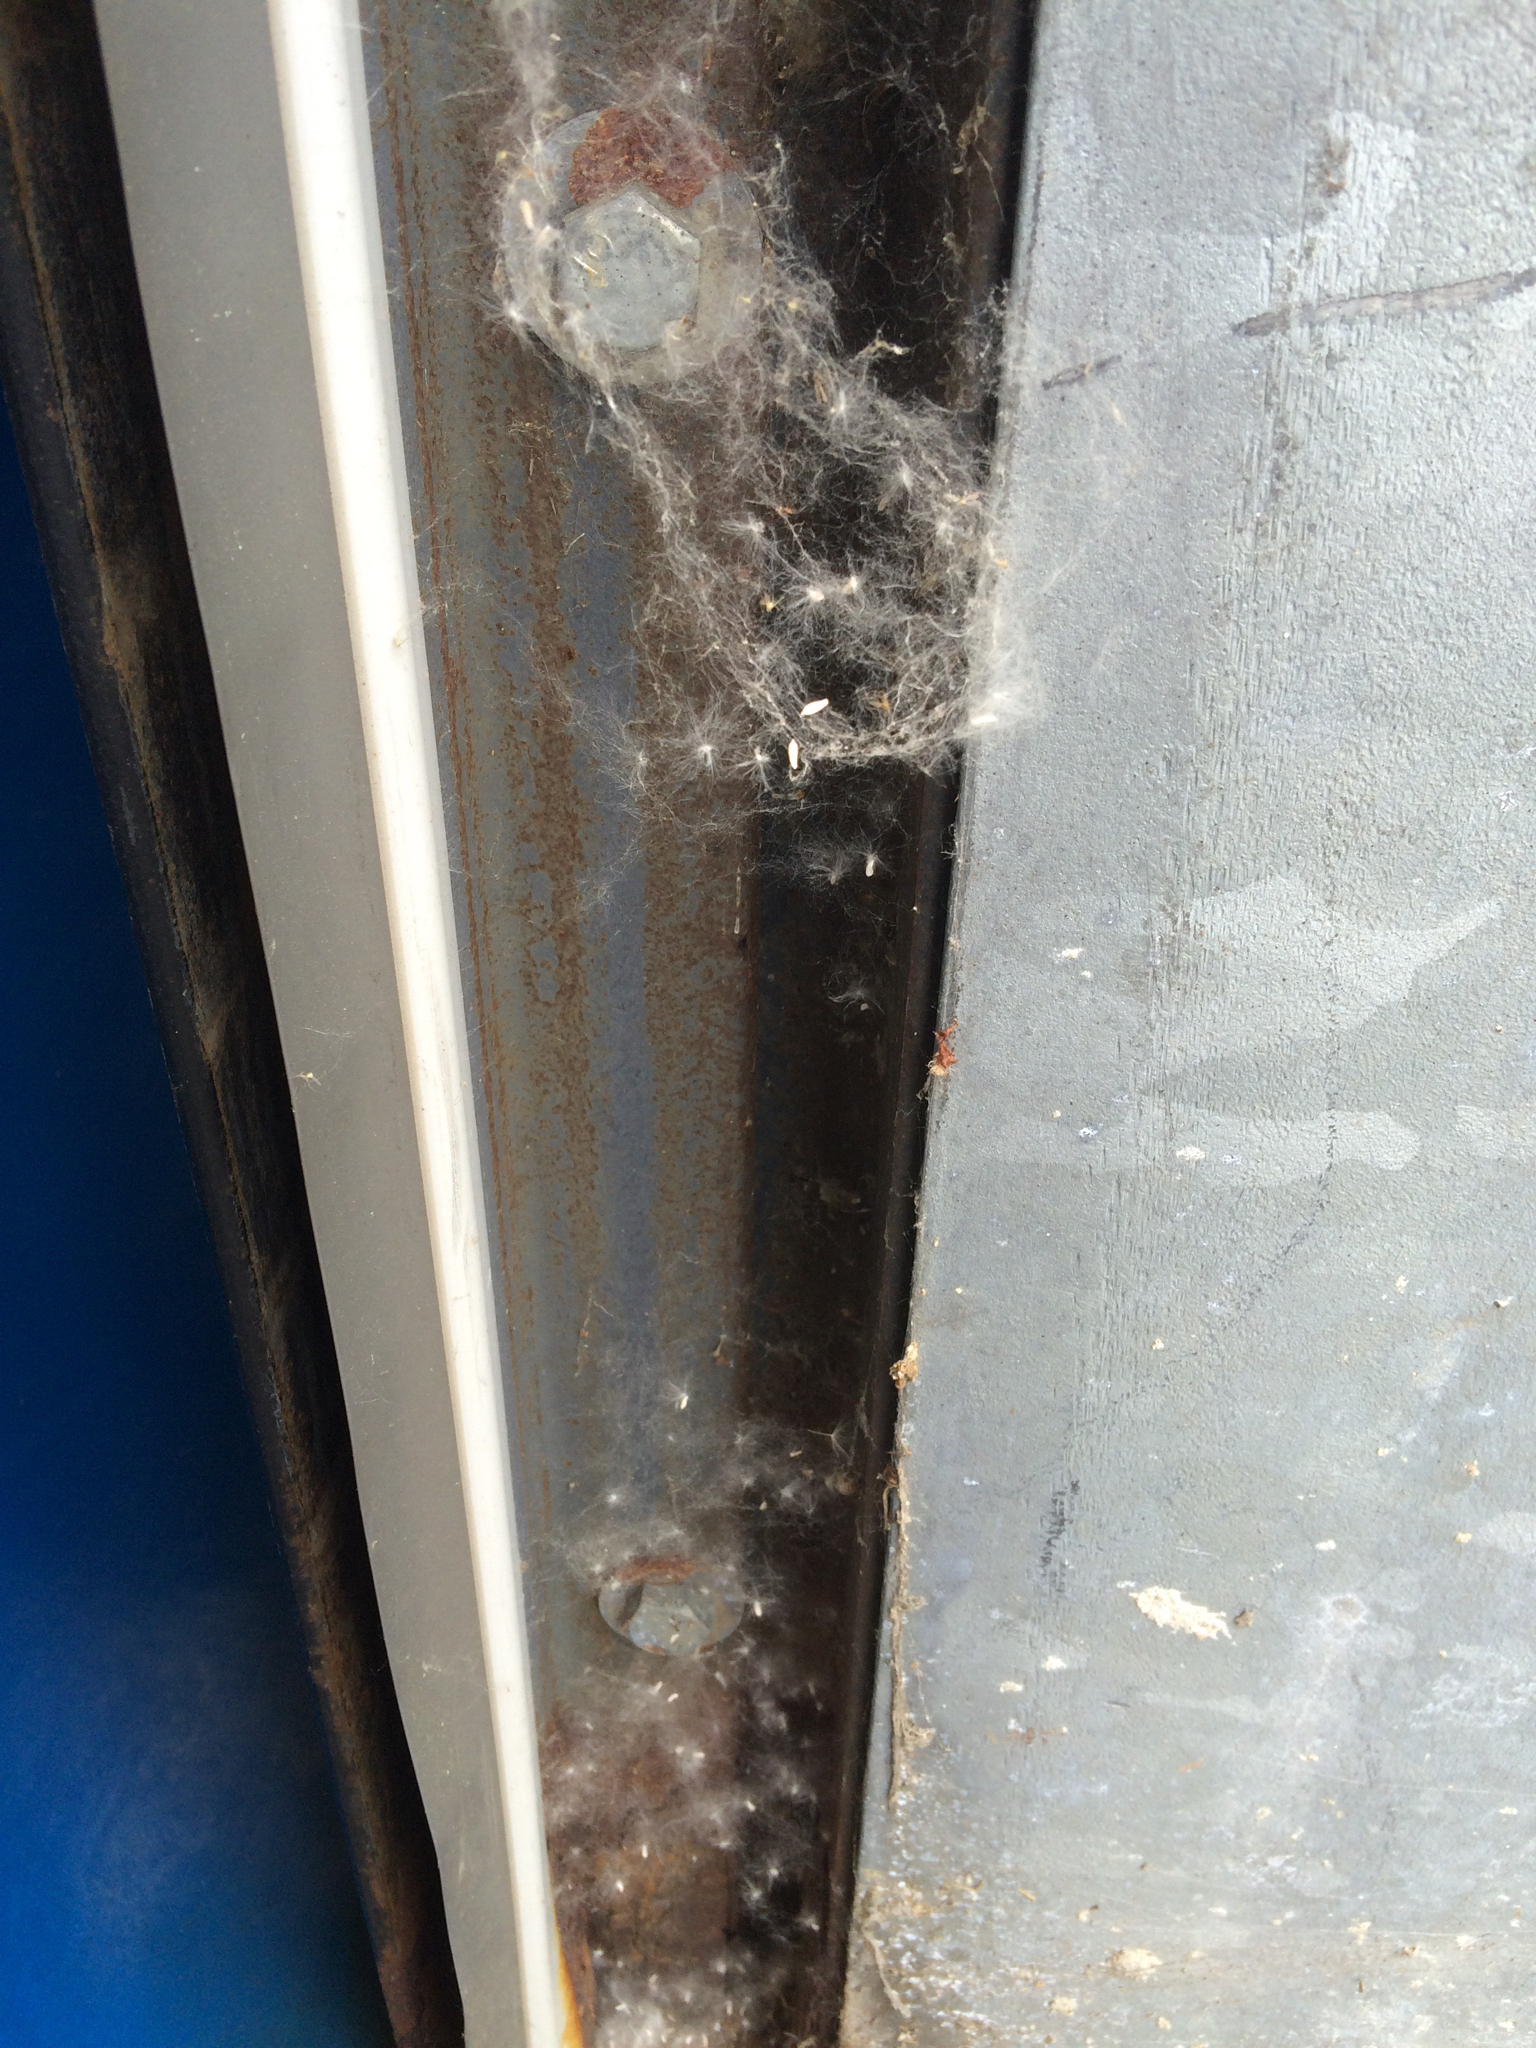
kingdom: Plantae
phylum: Tracheophyta
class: Magnoliopsida
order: Malpighiales
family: Salicaceae
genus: Populus
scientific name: Populus deltoides
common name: Eastern cottonwood
